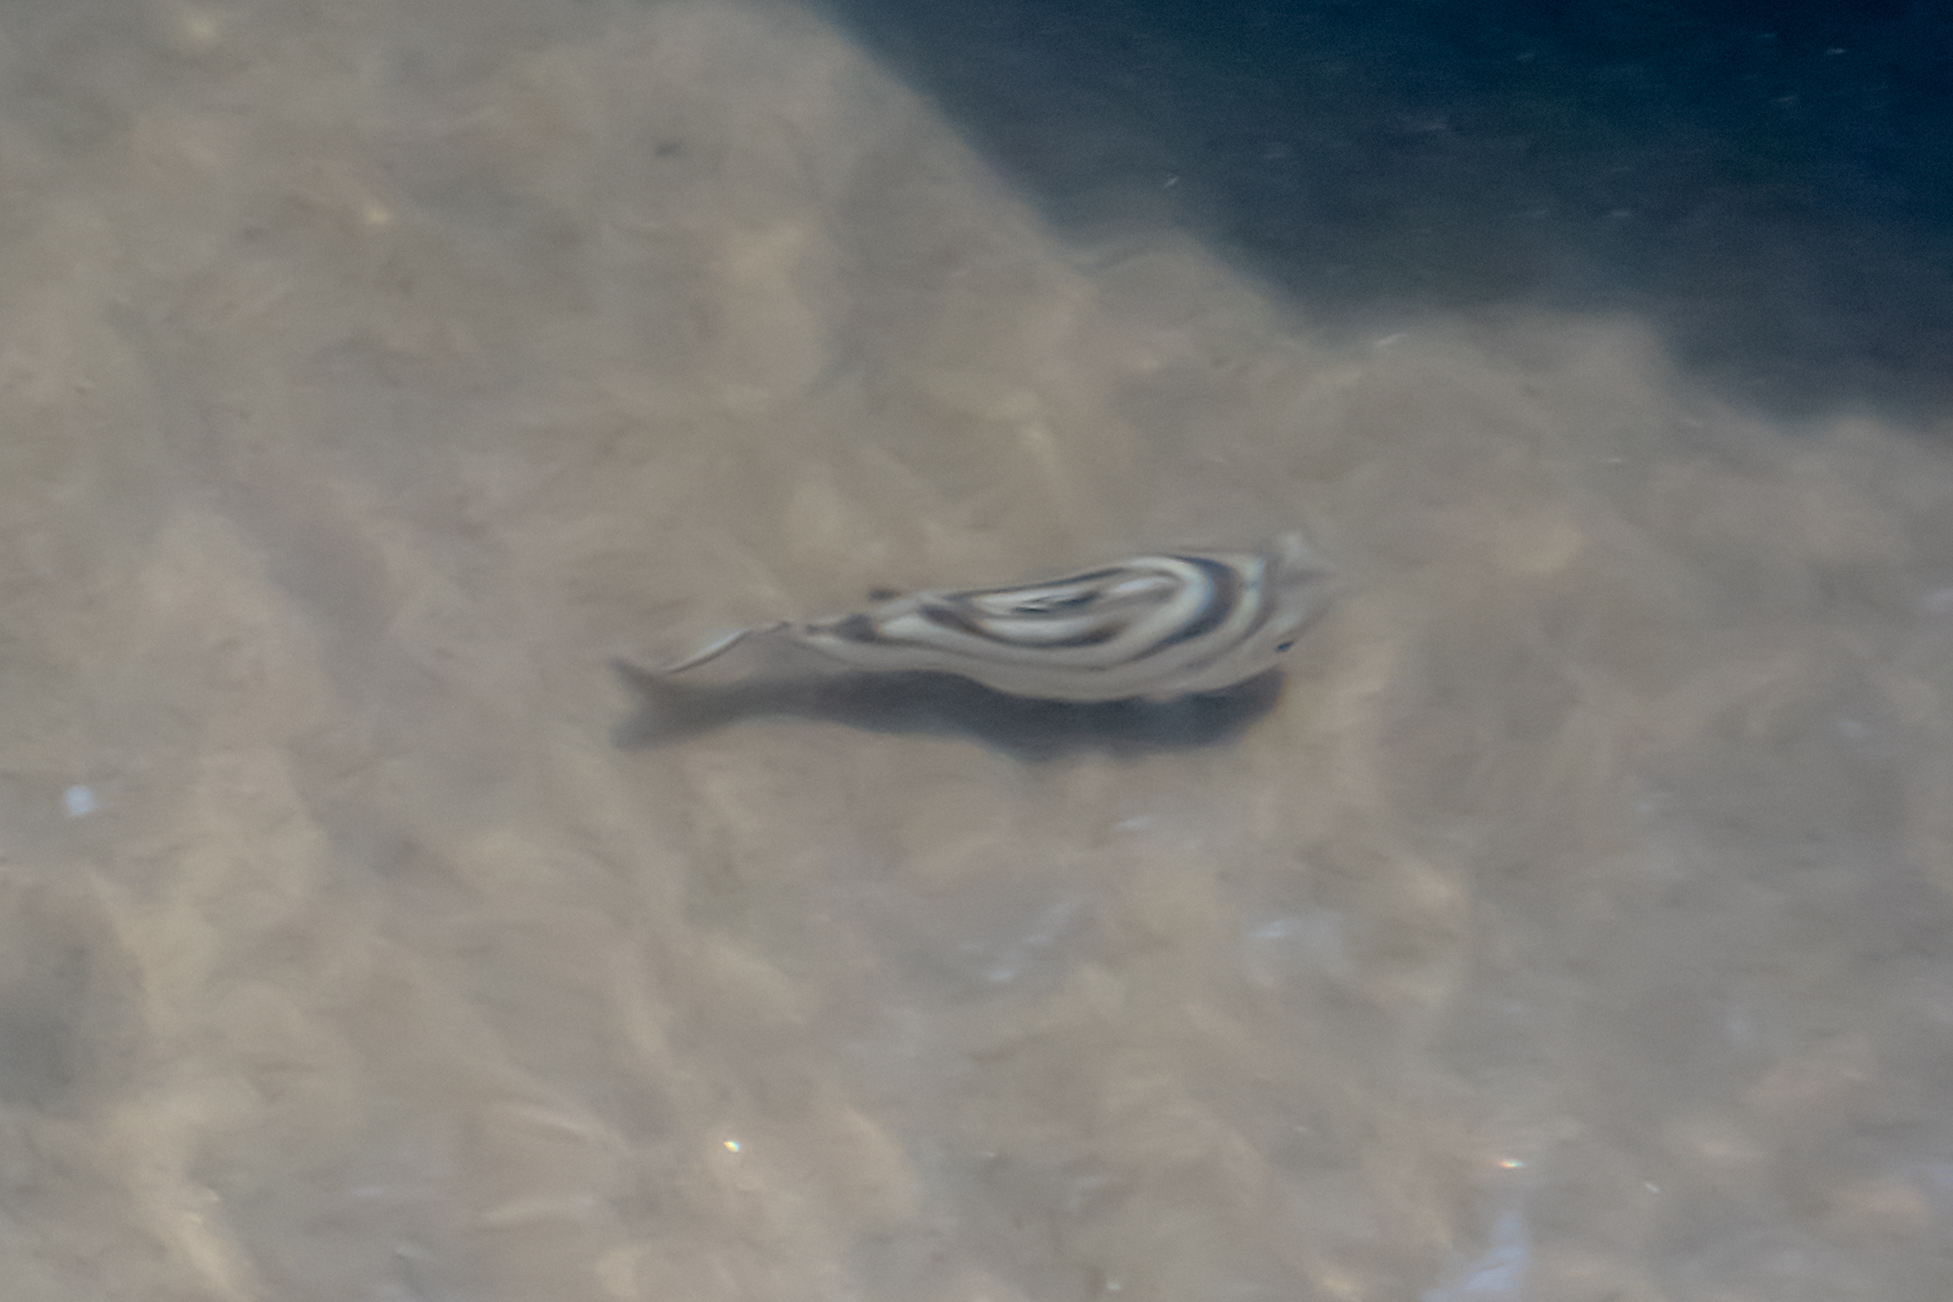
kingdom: Animalia
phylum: Chordata
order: Perciformes
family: Terapontidae
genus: Terapon
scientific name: Terapon jarbua
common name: Jarbua terapon
